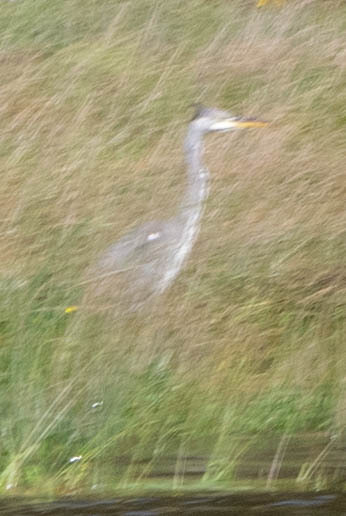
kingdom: Animalia
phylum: Chordata
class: Aves
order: Pelecaniformes
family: Ardeidae
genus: Ardea
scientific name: Ardea cinerea
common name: Grey heron
